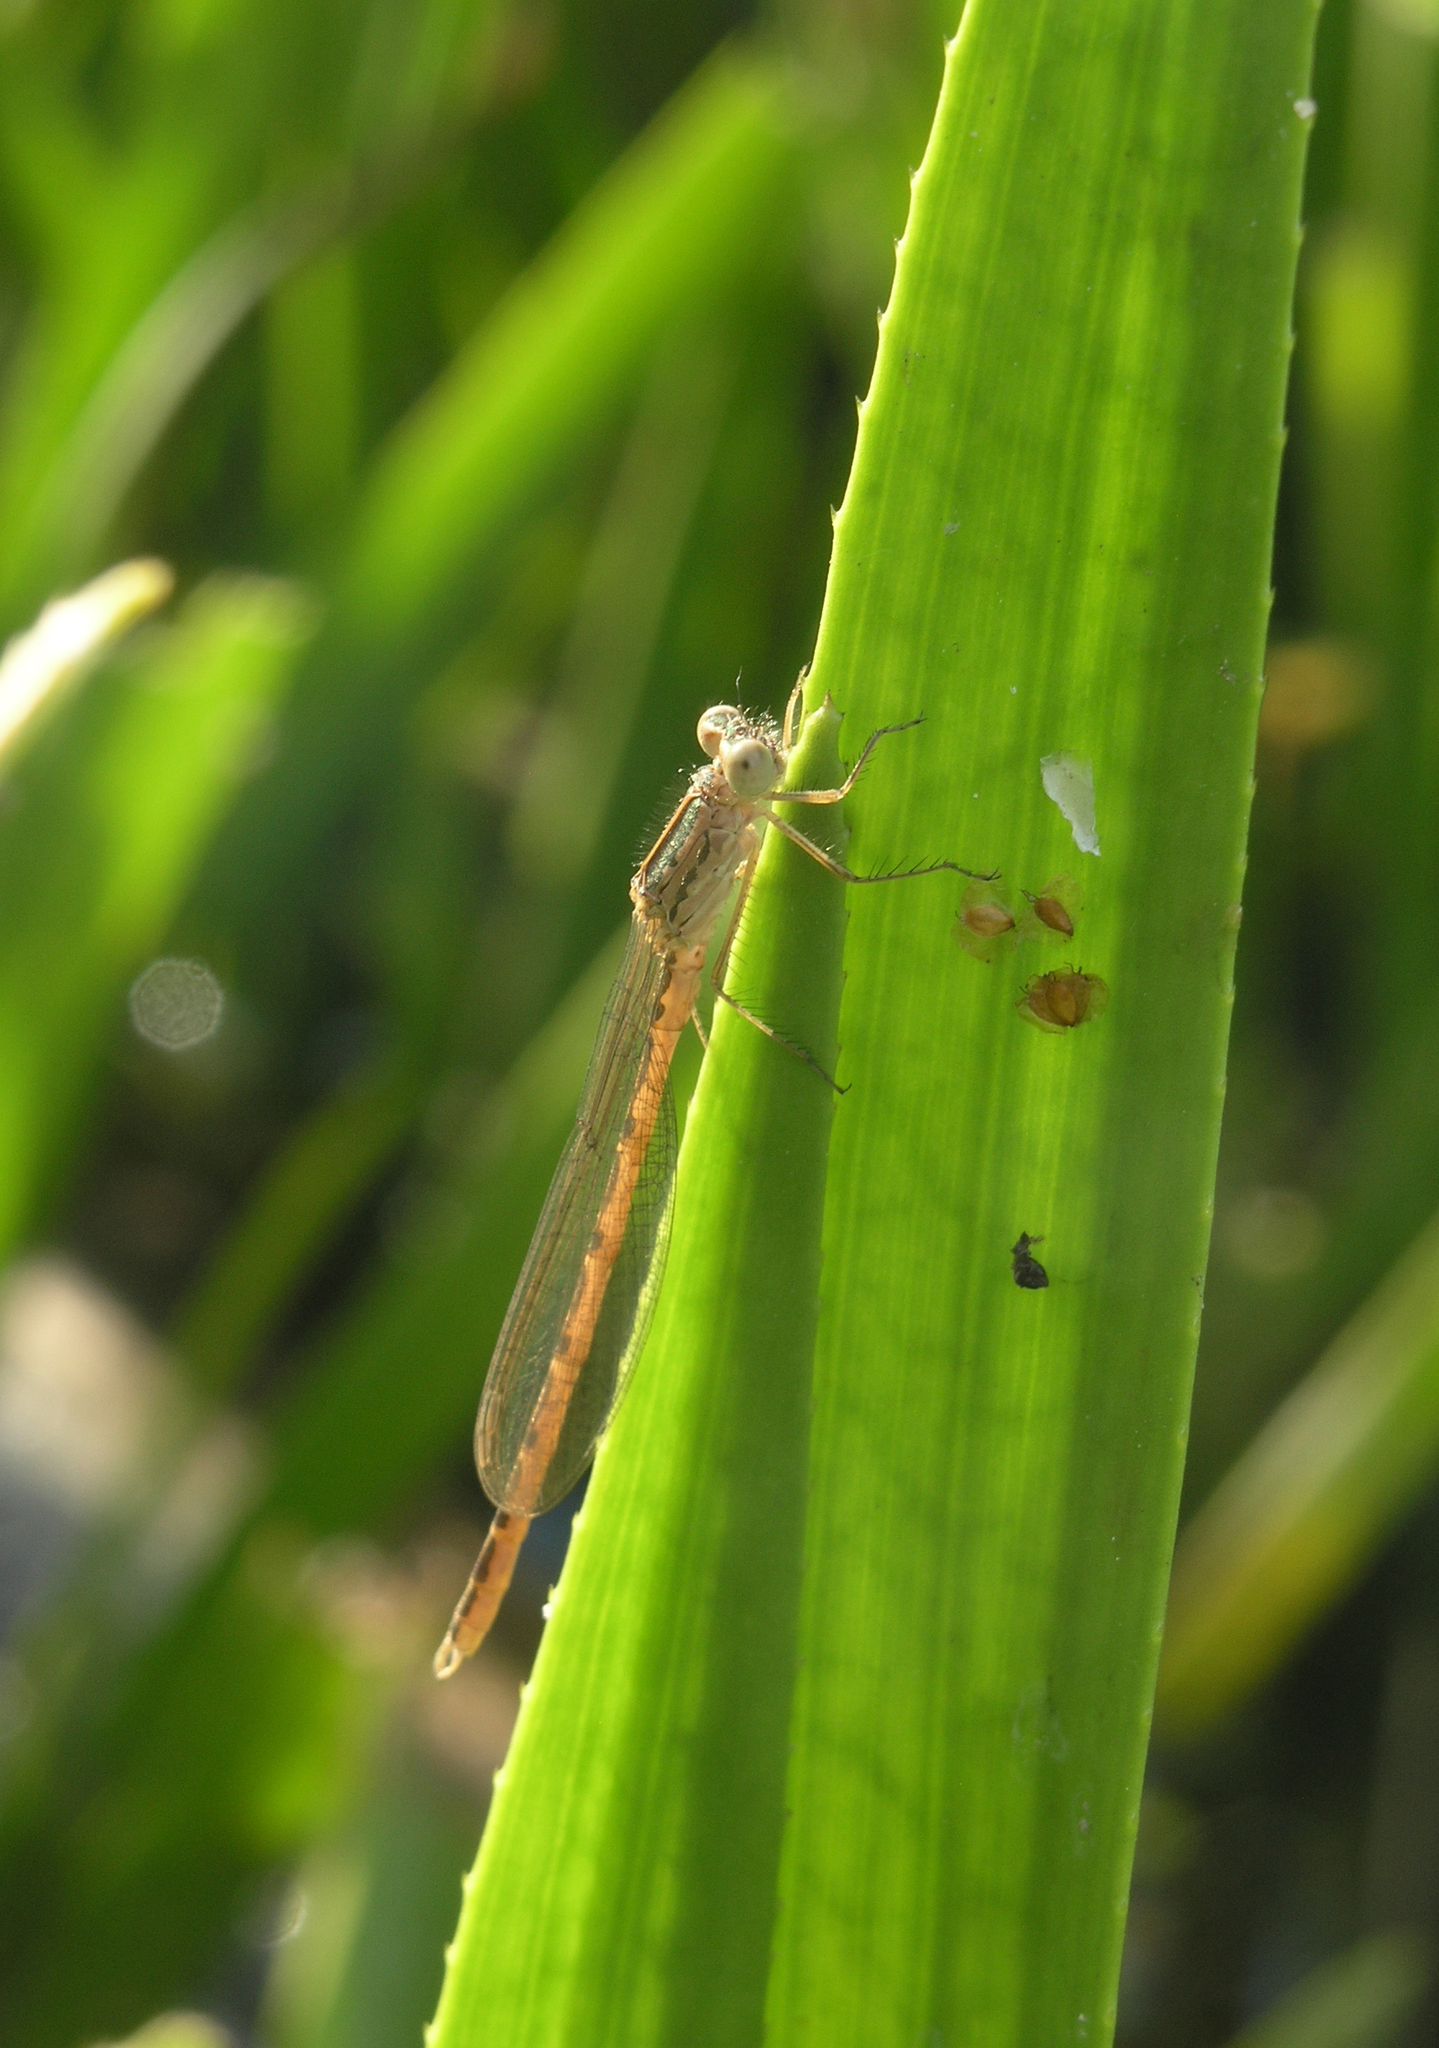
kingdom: Animalia
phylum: Arthropoda
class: Insecta
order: Odonata
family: Lestidae
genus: Sympecma
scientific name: Sympecma paedisca
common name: Siberian winter damsel
